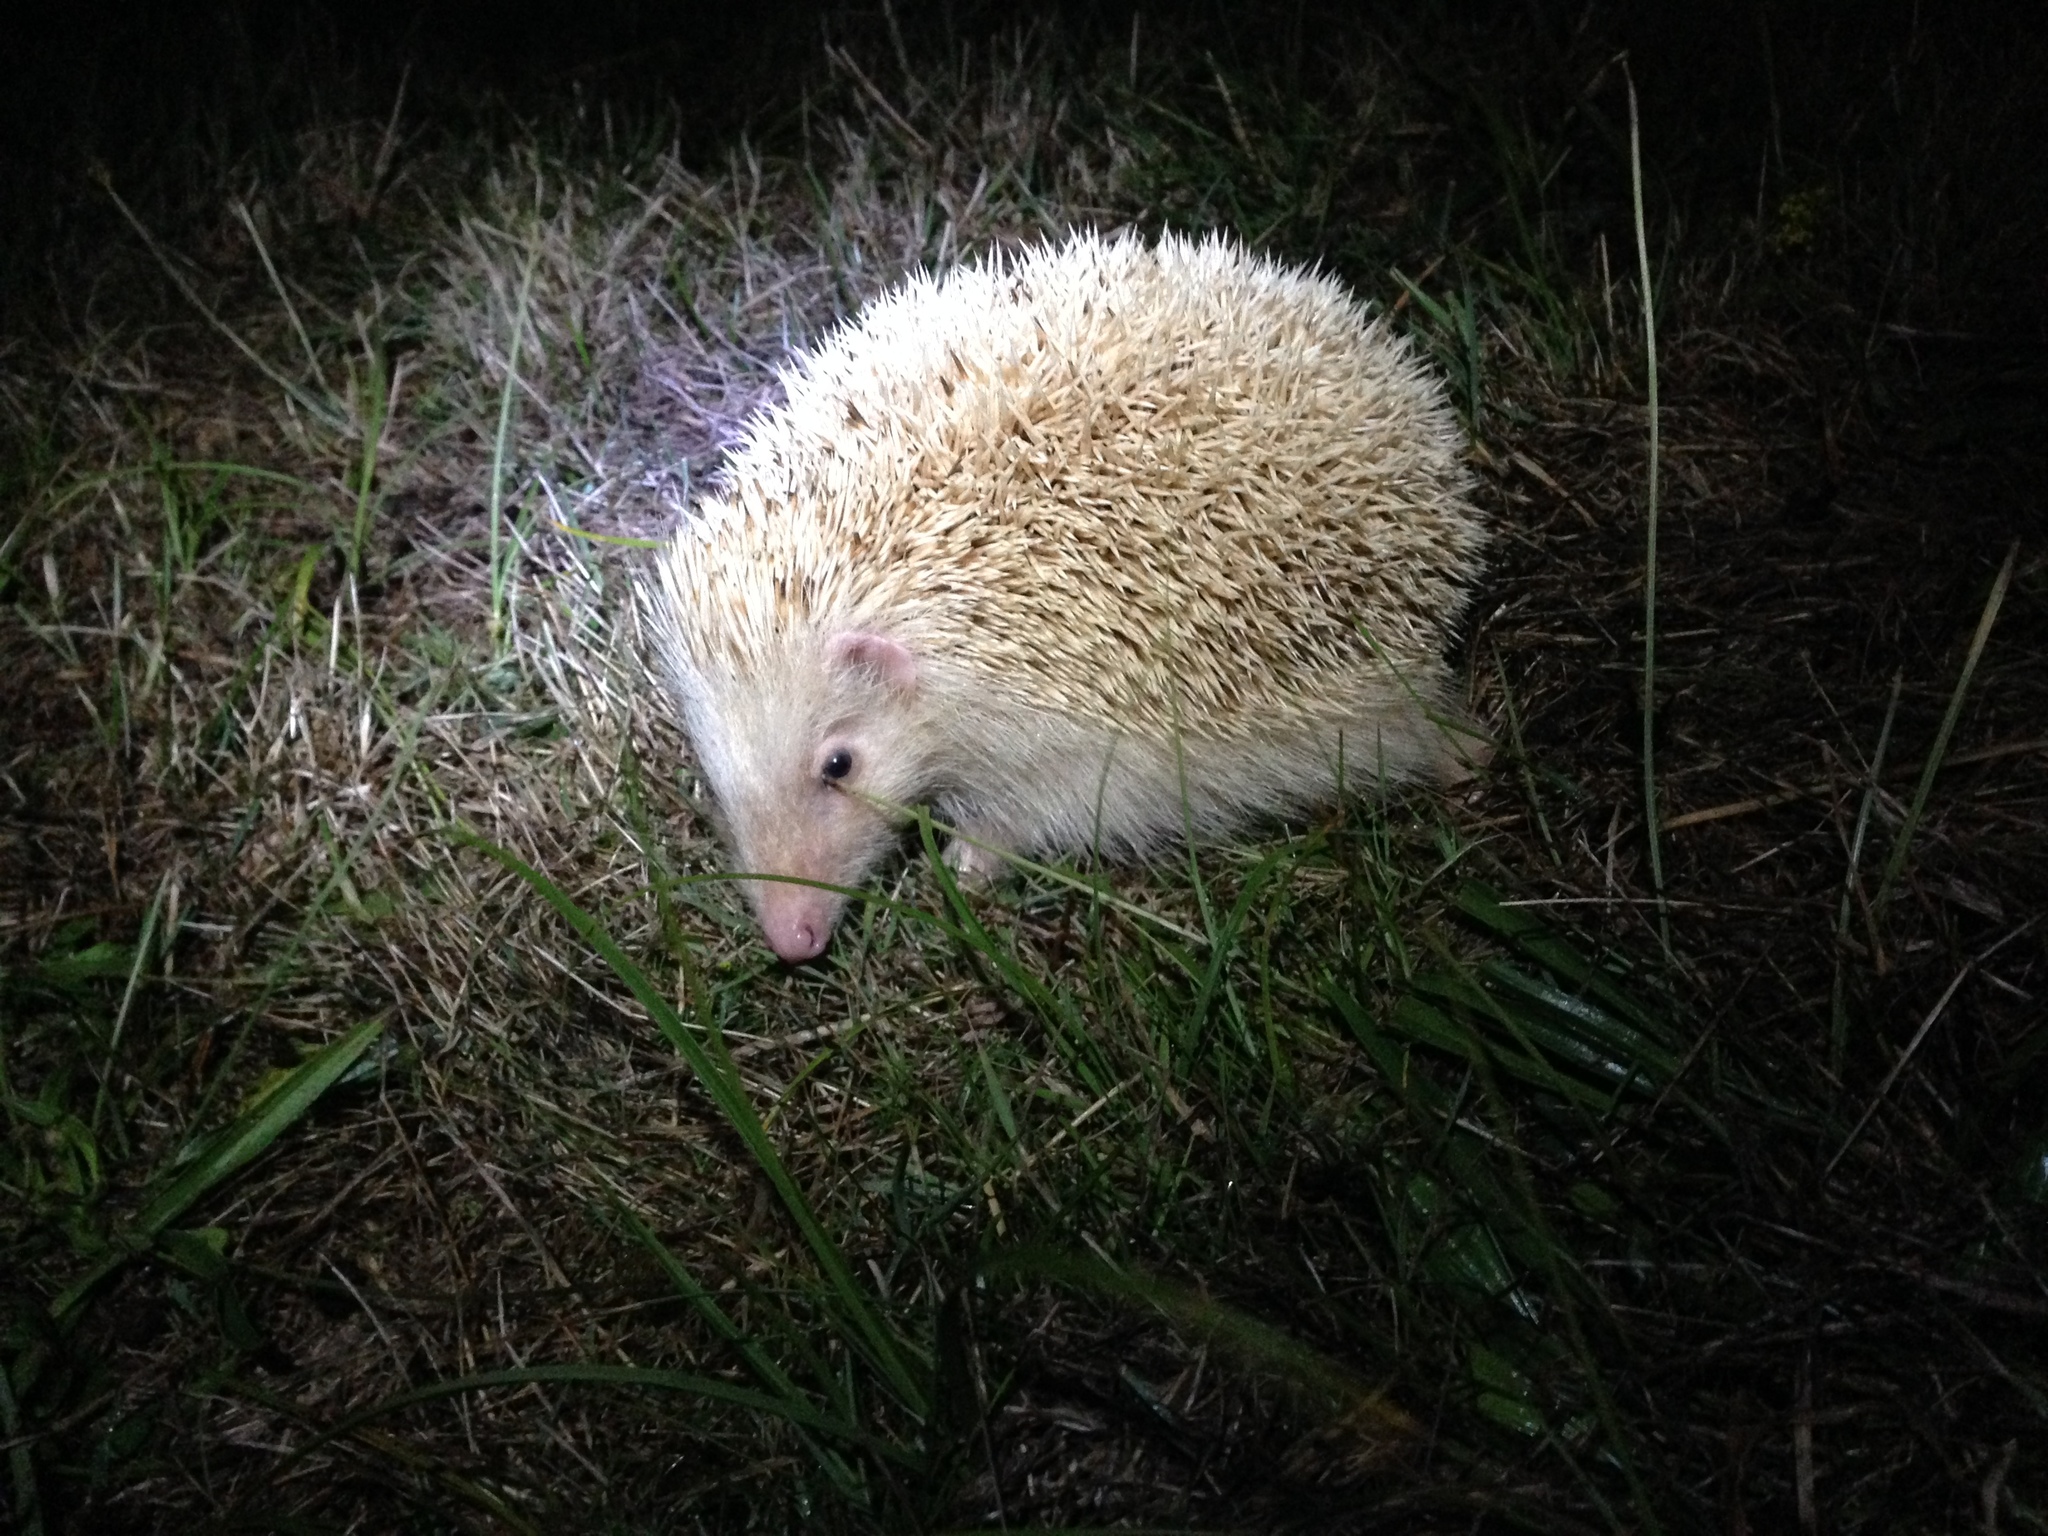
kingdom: Animalia
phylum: Chordata
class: Mammalia
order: Erinaceomorpha
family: Erinaceidae
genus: Erinaceus
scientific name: Erinaceus europaeus
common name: West european hedgehog
